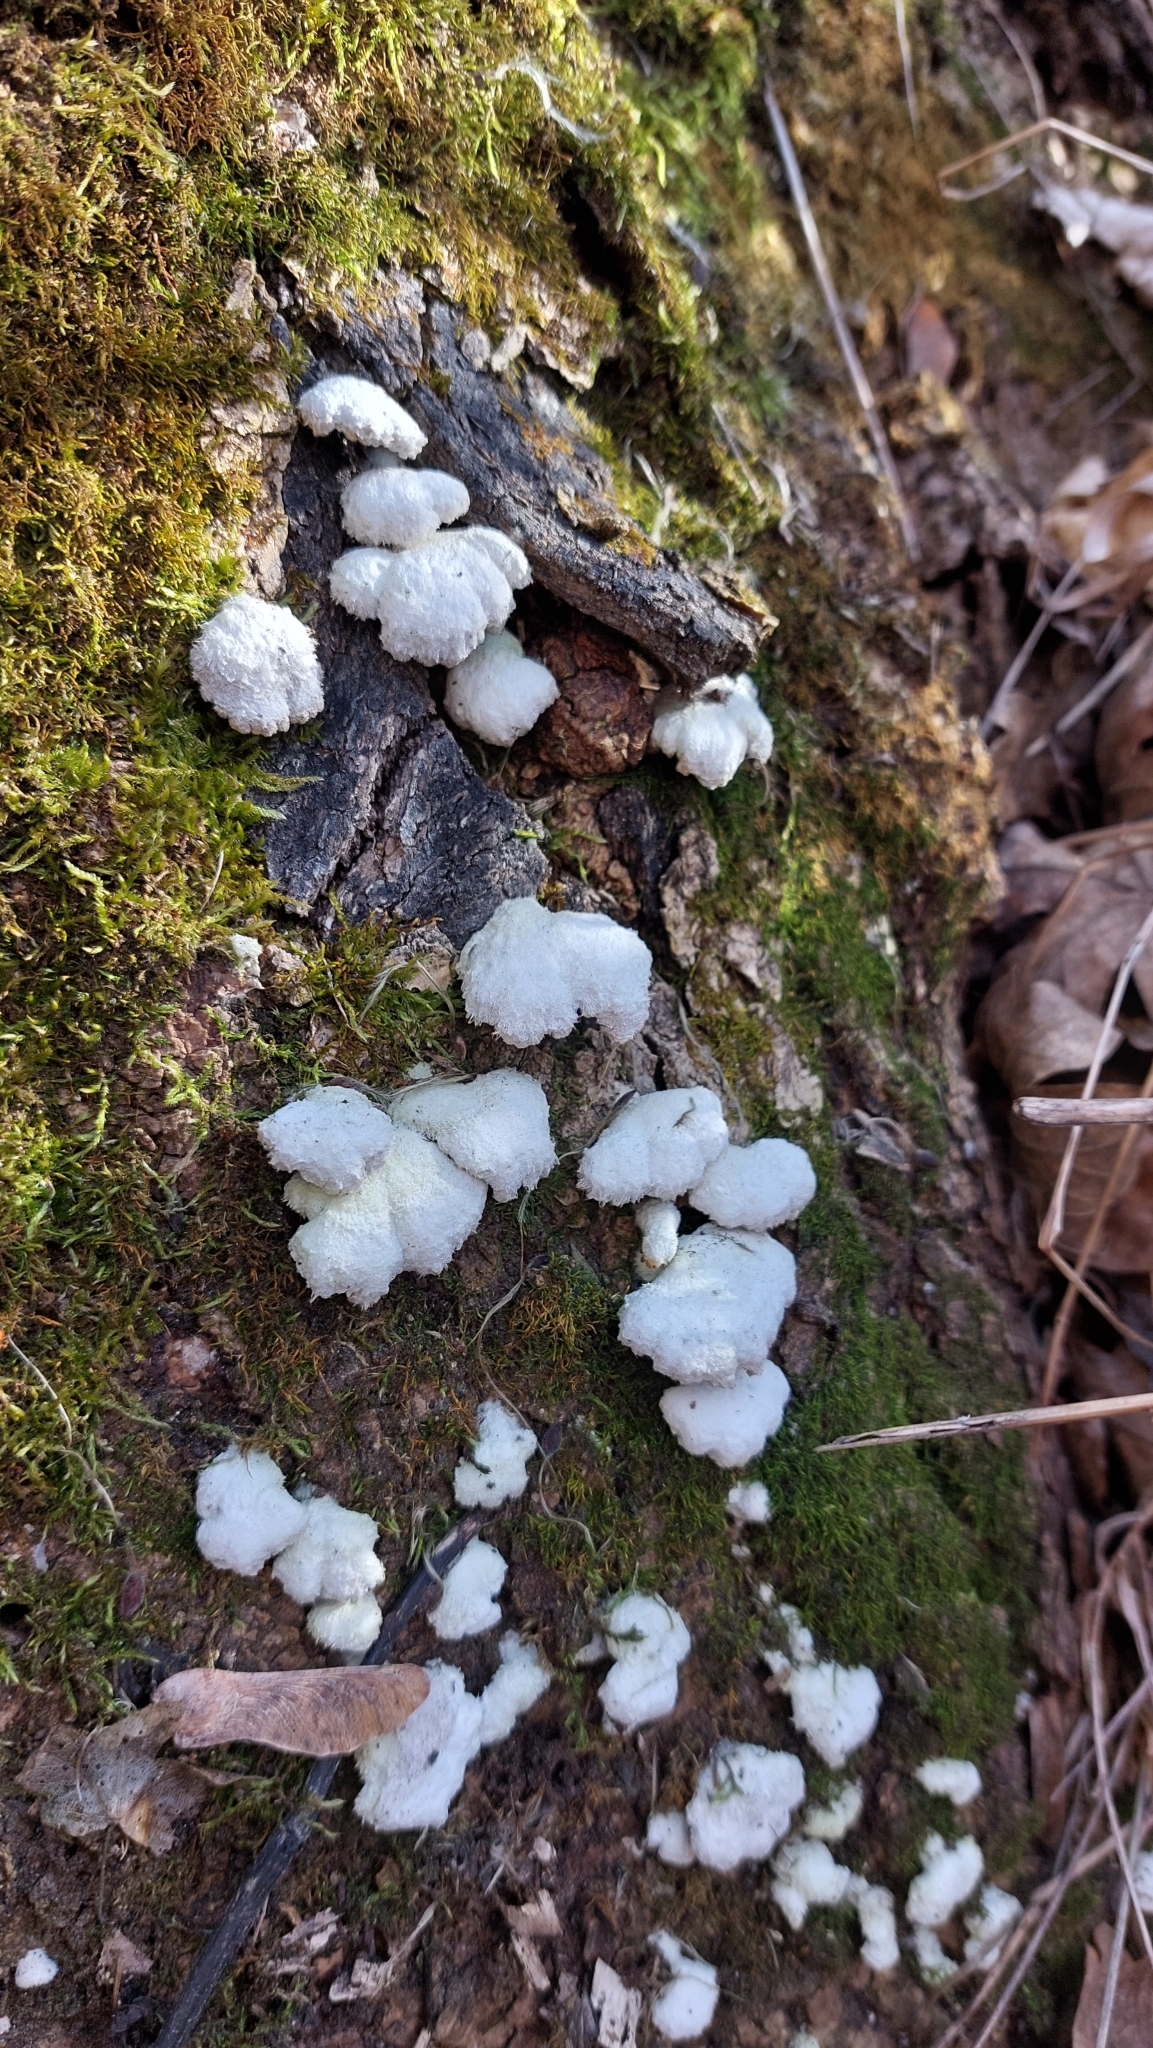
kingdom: Fungi
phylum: Basidiomycota
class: Agaricomycetes
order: Agaricales
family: Schizophyllaceae
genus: Schizophyllum
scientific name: Schizophyllum commune
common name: Common porecrust
